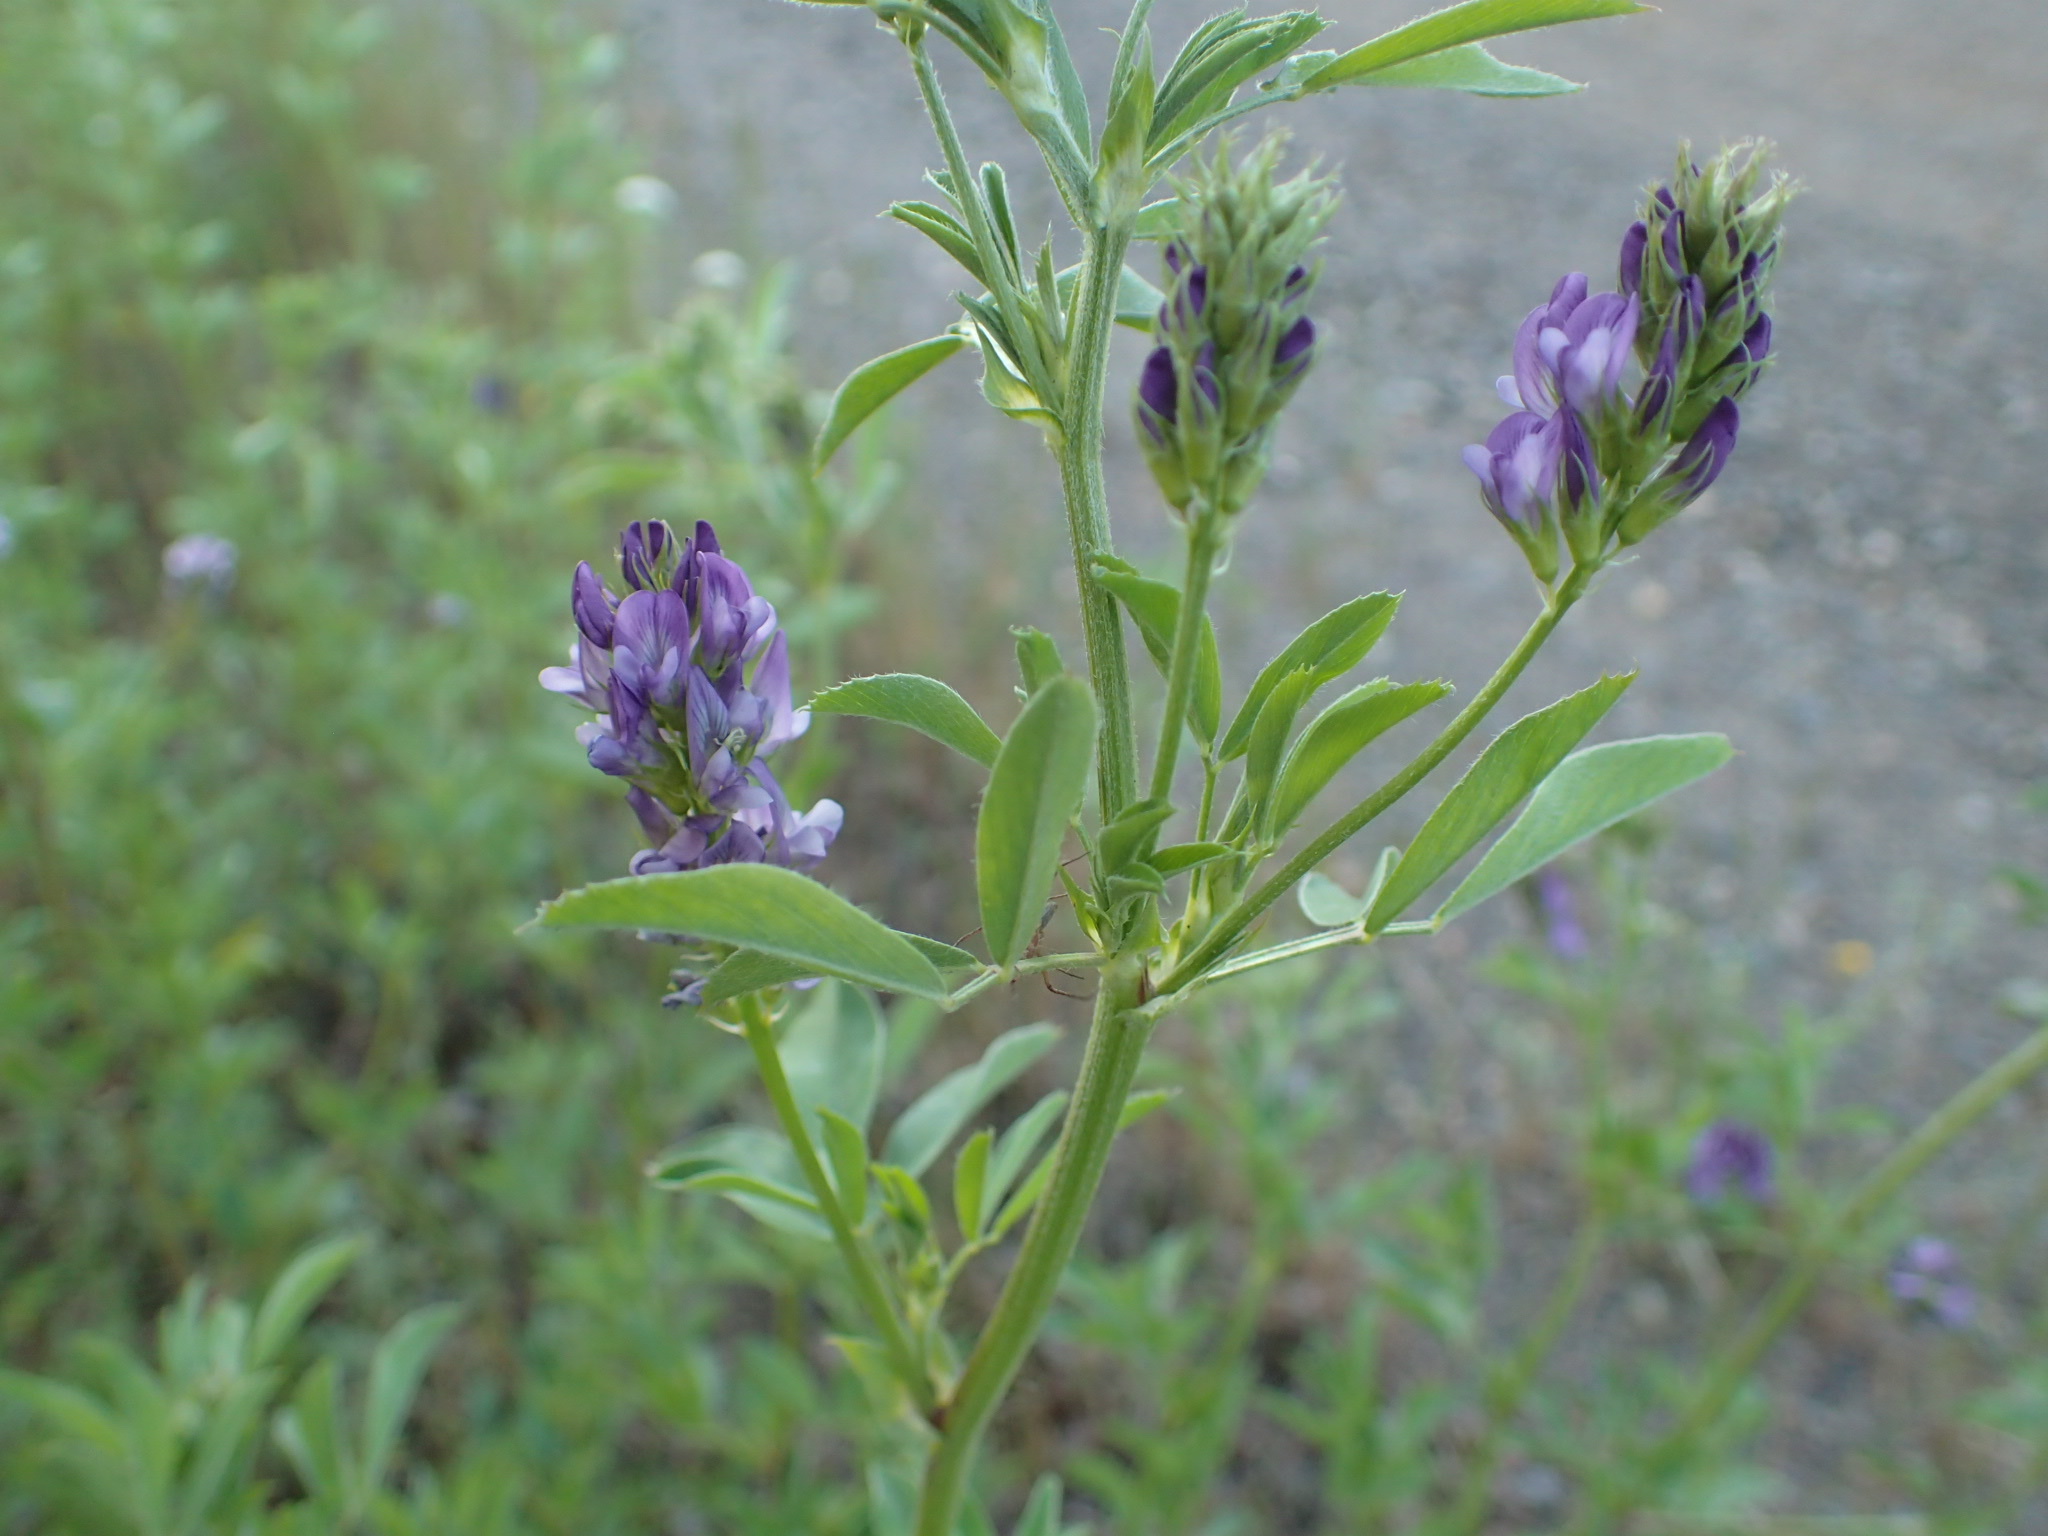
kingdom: Plantae
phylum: Tracheophyta
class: Magnoliopsida
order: Fabales
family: Fabaceae
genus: Medicago
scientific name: Medicago sativa
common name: Alfalfa
